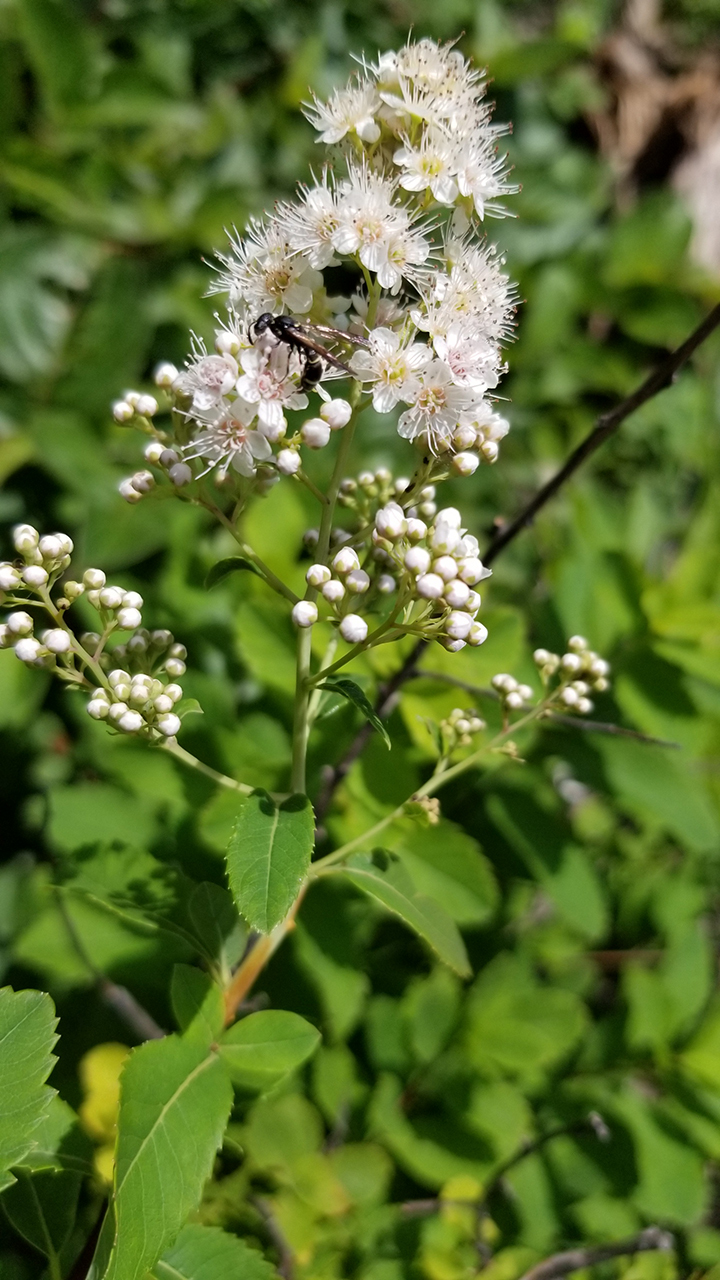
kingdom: Plantae
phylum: Tracheophyta
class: Magnoliopsida
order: Rosales
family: Rosaceae
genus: Spiraea
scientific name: Spiraea alba
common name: Pale bridewort
